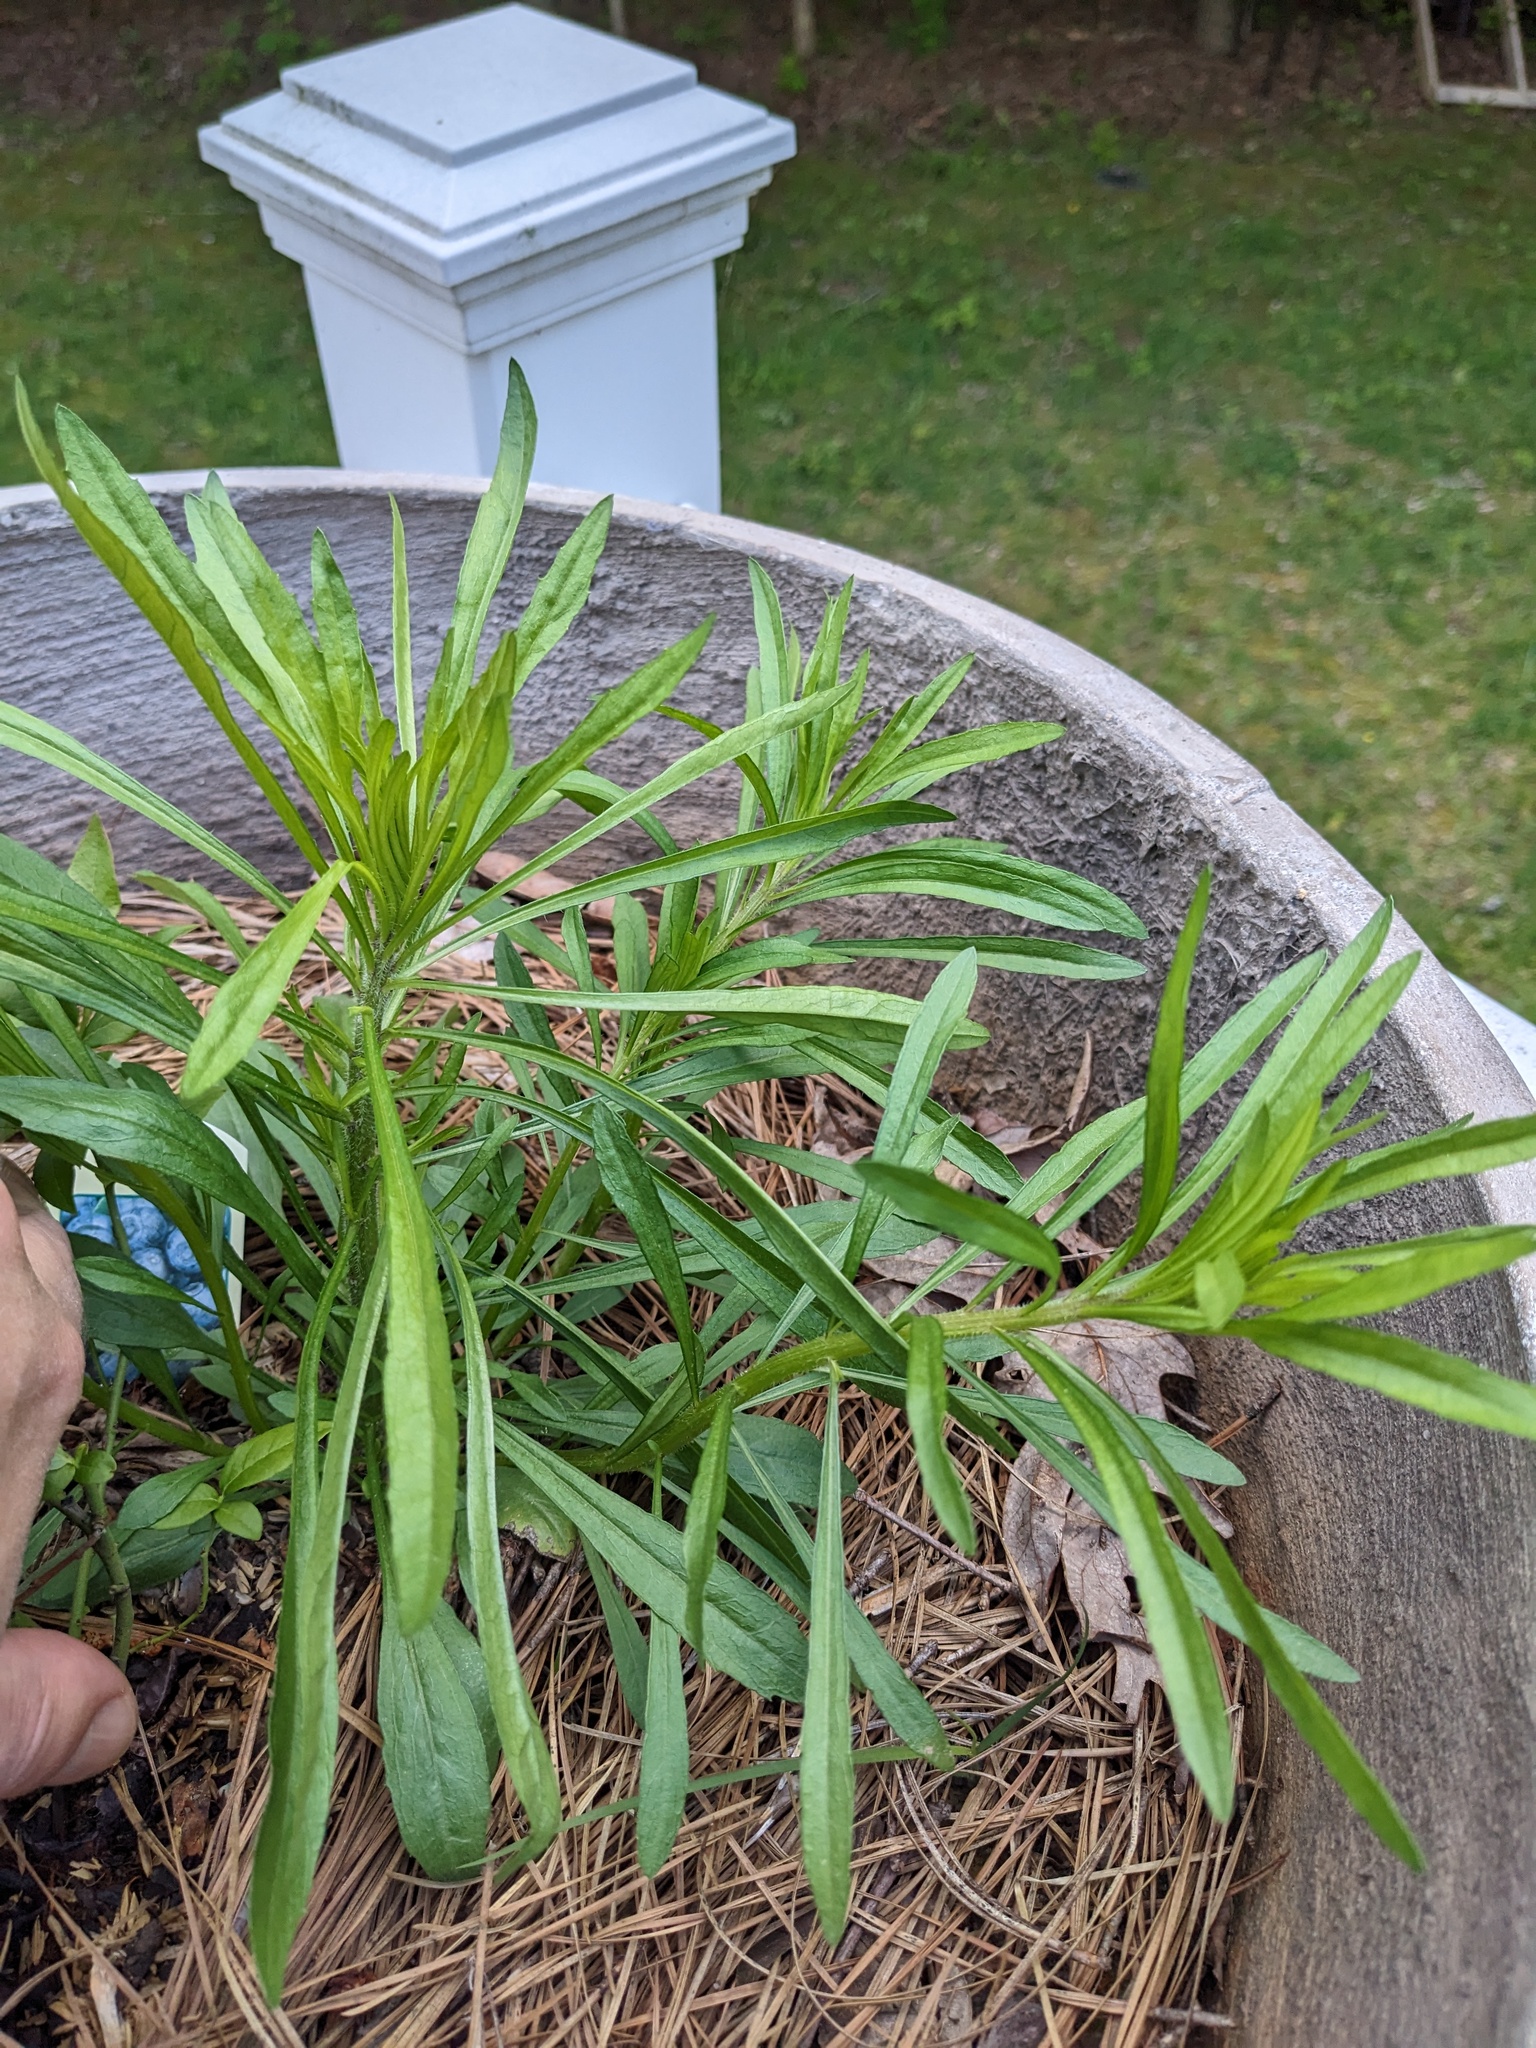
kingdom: Plantae
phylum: Tracheophyta
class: Magnoliopsida
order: Asterales
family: Asteraceae
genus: Erigeron
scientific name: Erigeron canadensis
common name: Canadian fleabane
